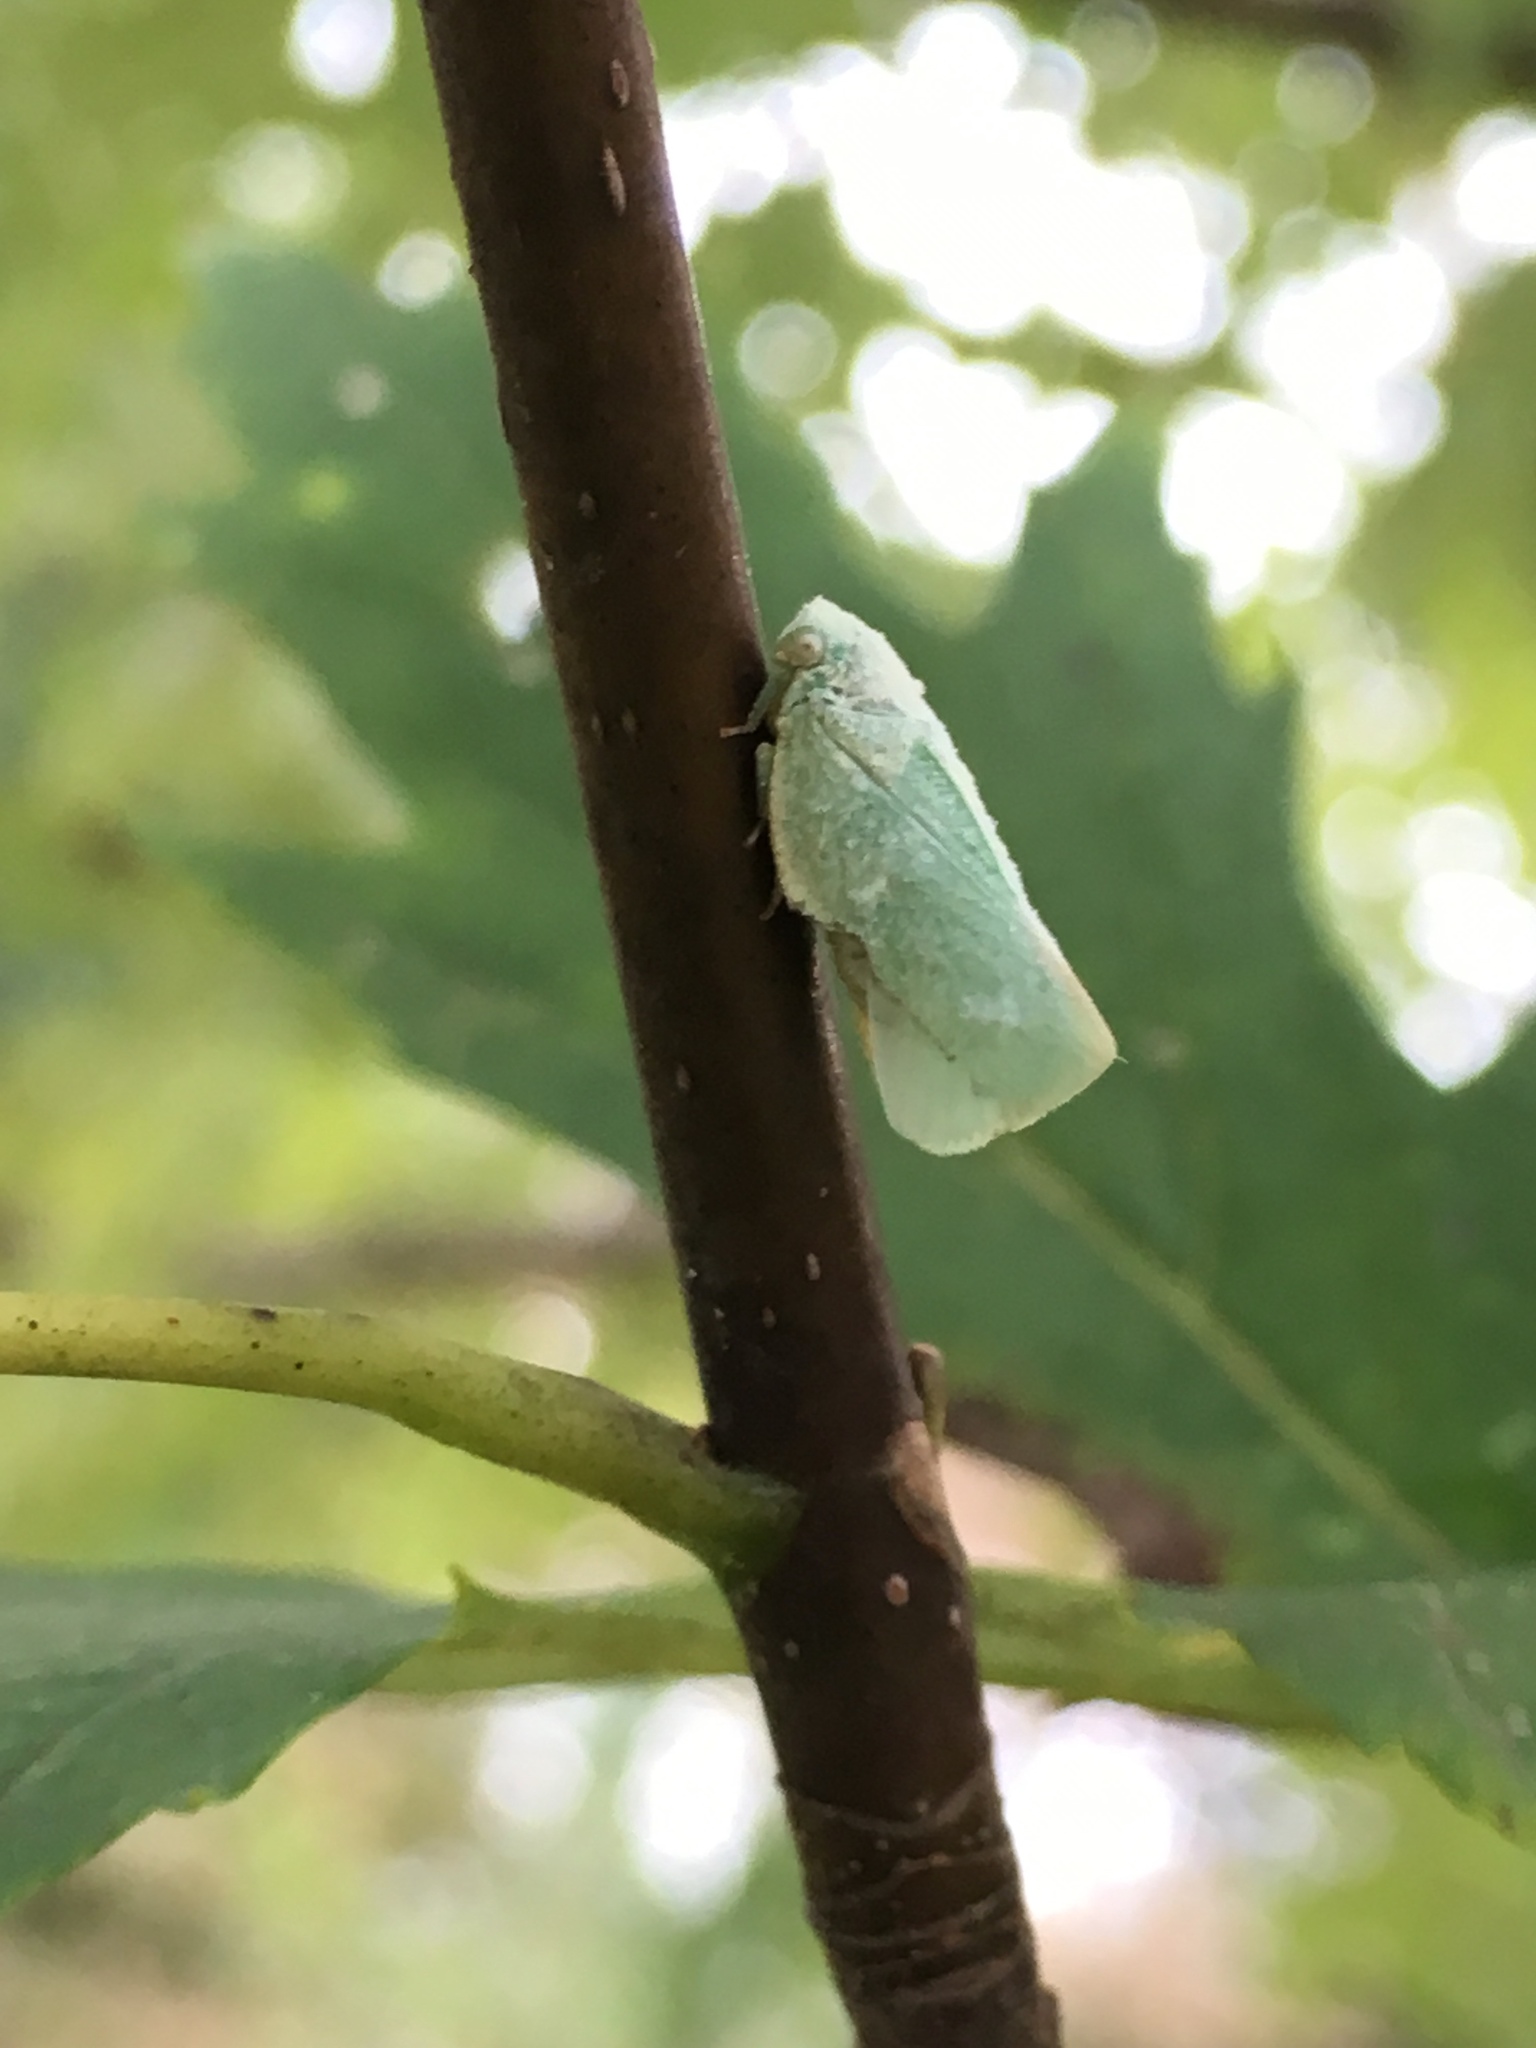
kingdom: Animalia
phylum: Arthropoda
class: Insecta
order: Hemiptera
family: Flatidae
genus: Flatormenis
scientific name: Flatormenis proxima
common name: Northern flatid planthopper
